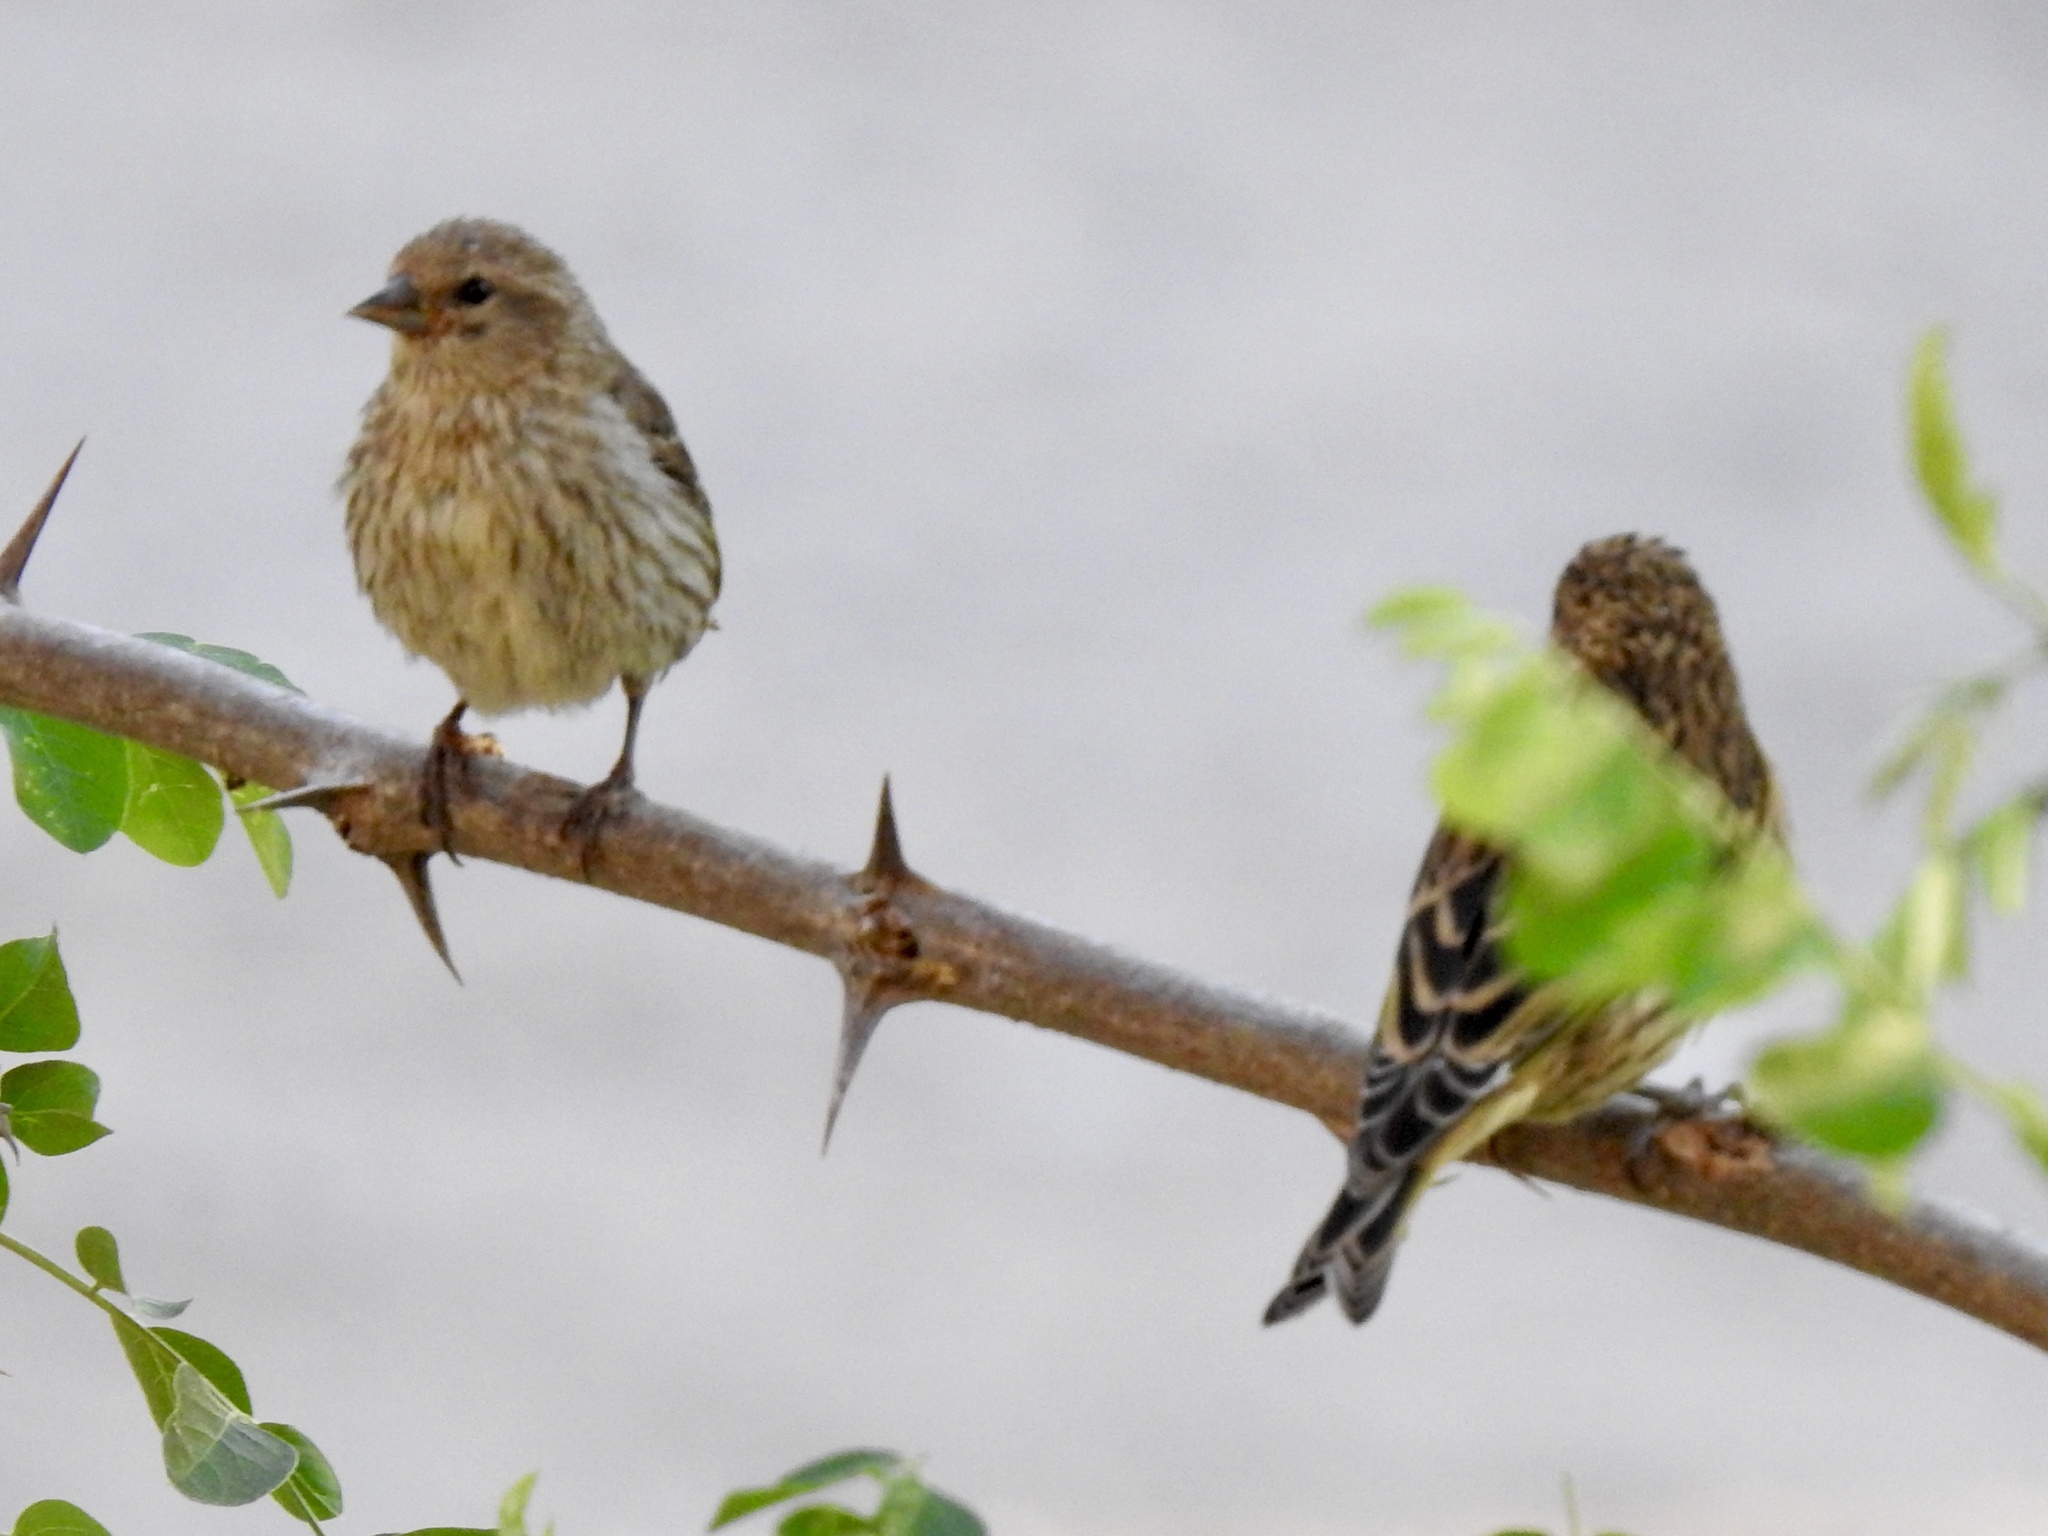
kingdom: Animalia
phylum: Chordata
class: Aves
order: Passeriformes
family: Fringillidae
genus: Spinus
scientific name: Spinus pinus
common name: Pine siskin
